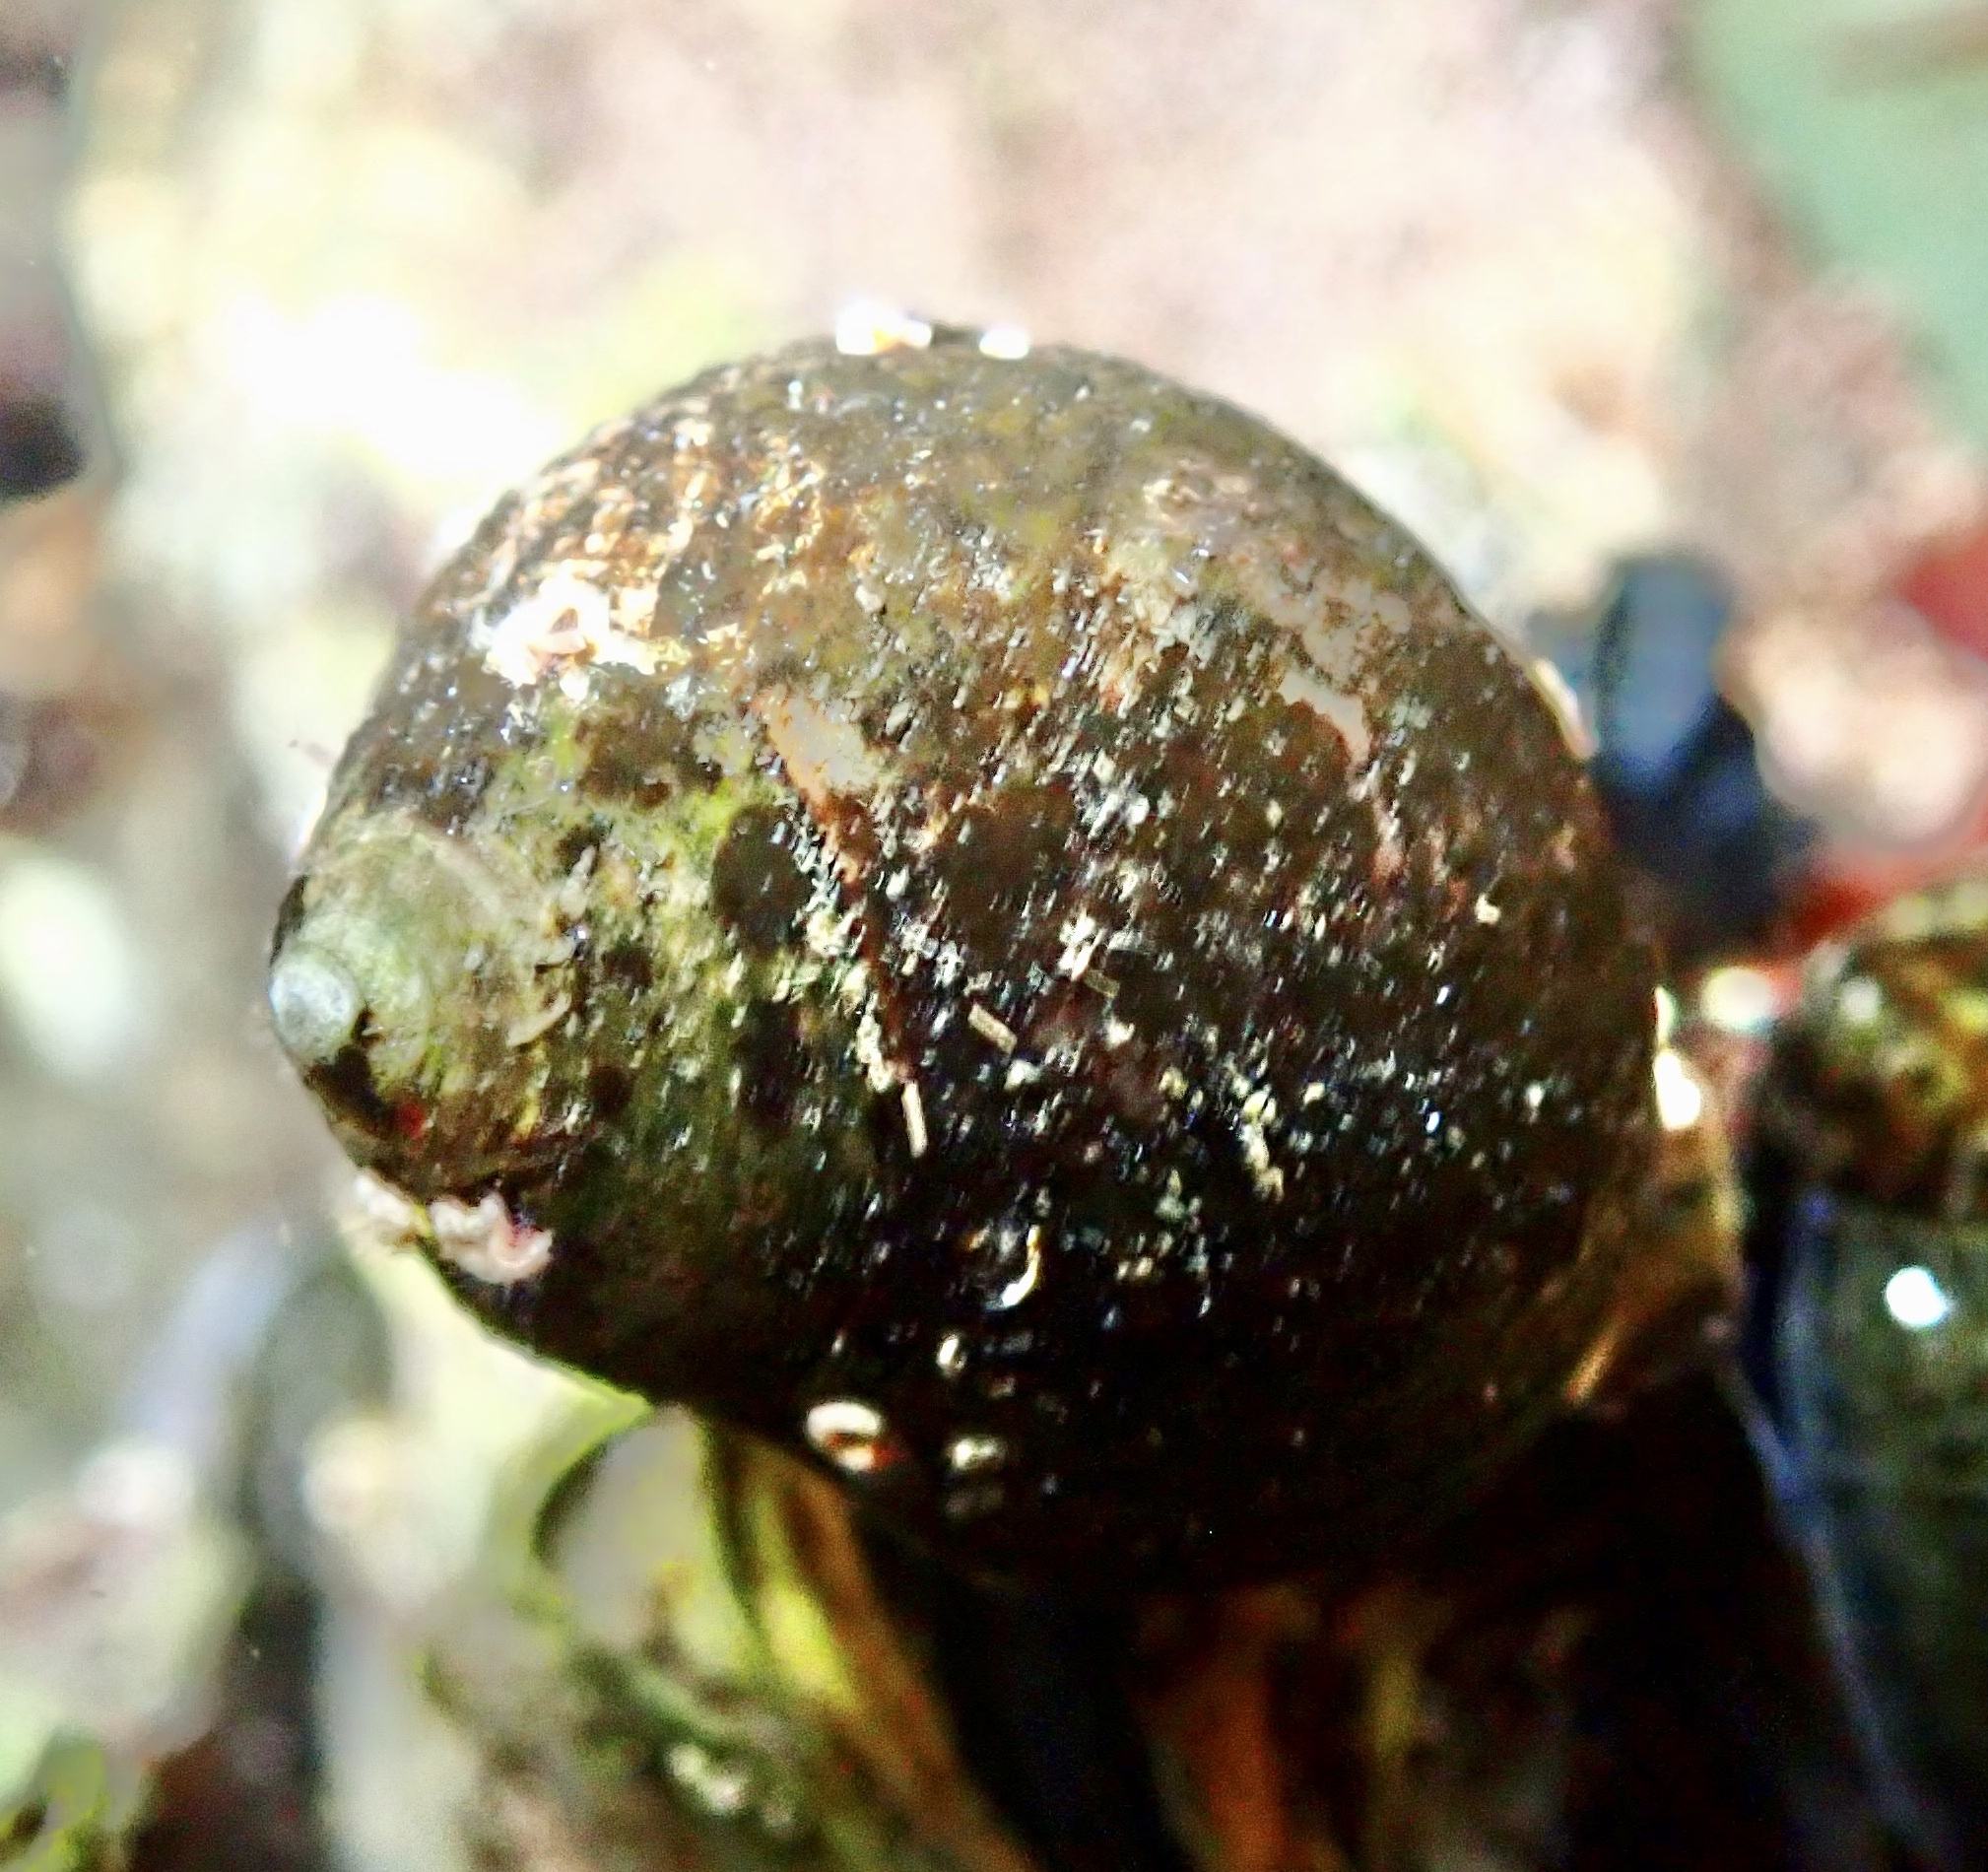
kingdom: Animalia
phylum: Mollusca
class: Gastropoda
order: Littorinimorpha
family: Littorinidae
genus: Littorina
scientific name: Littorina littorea
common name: Common periwinkle
